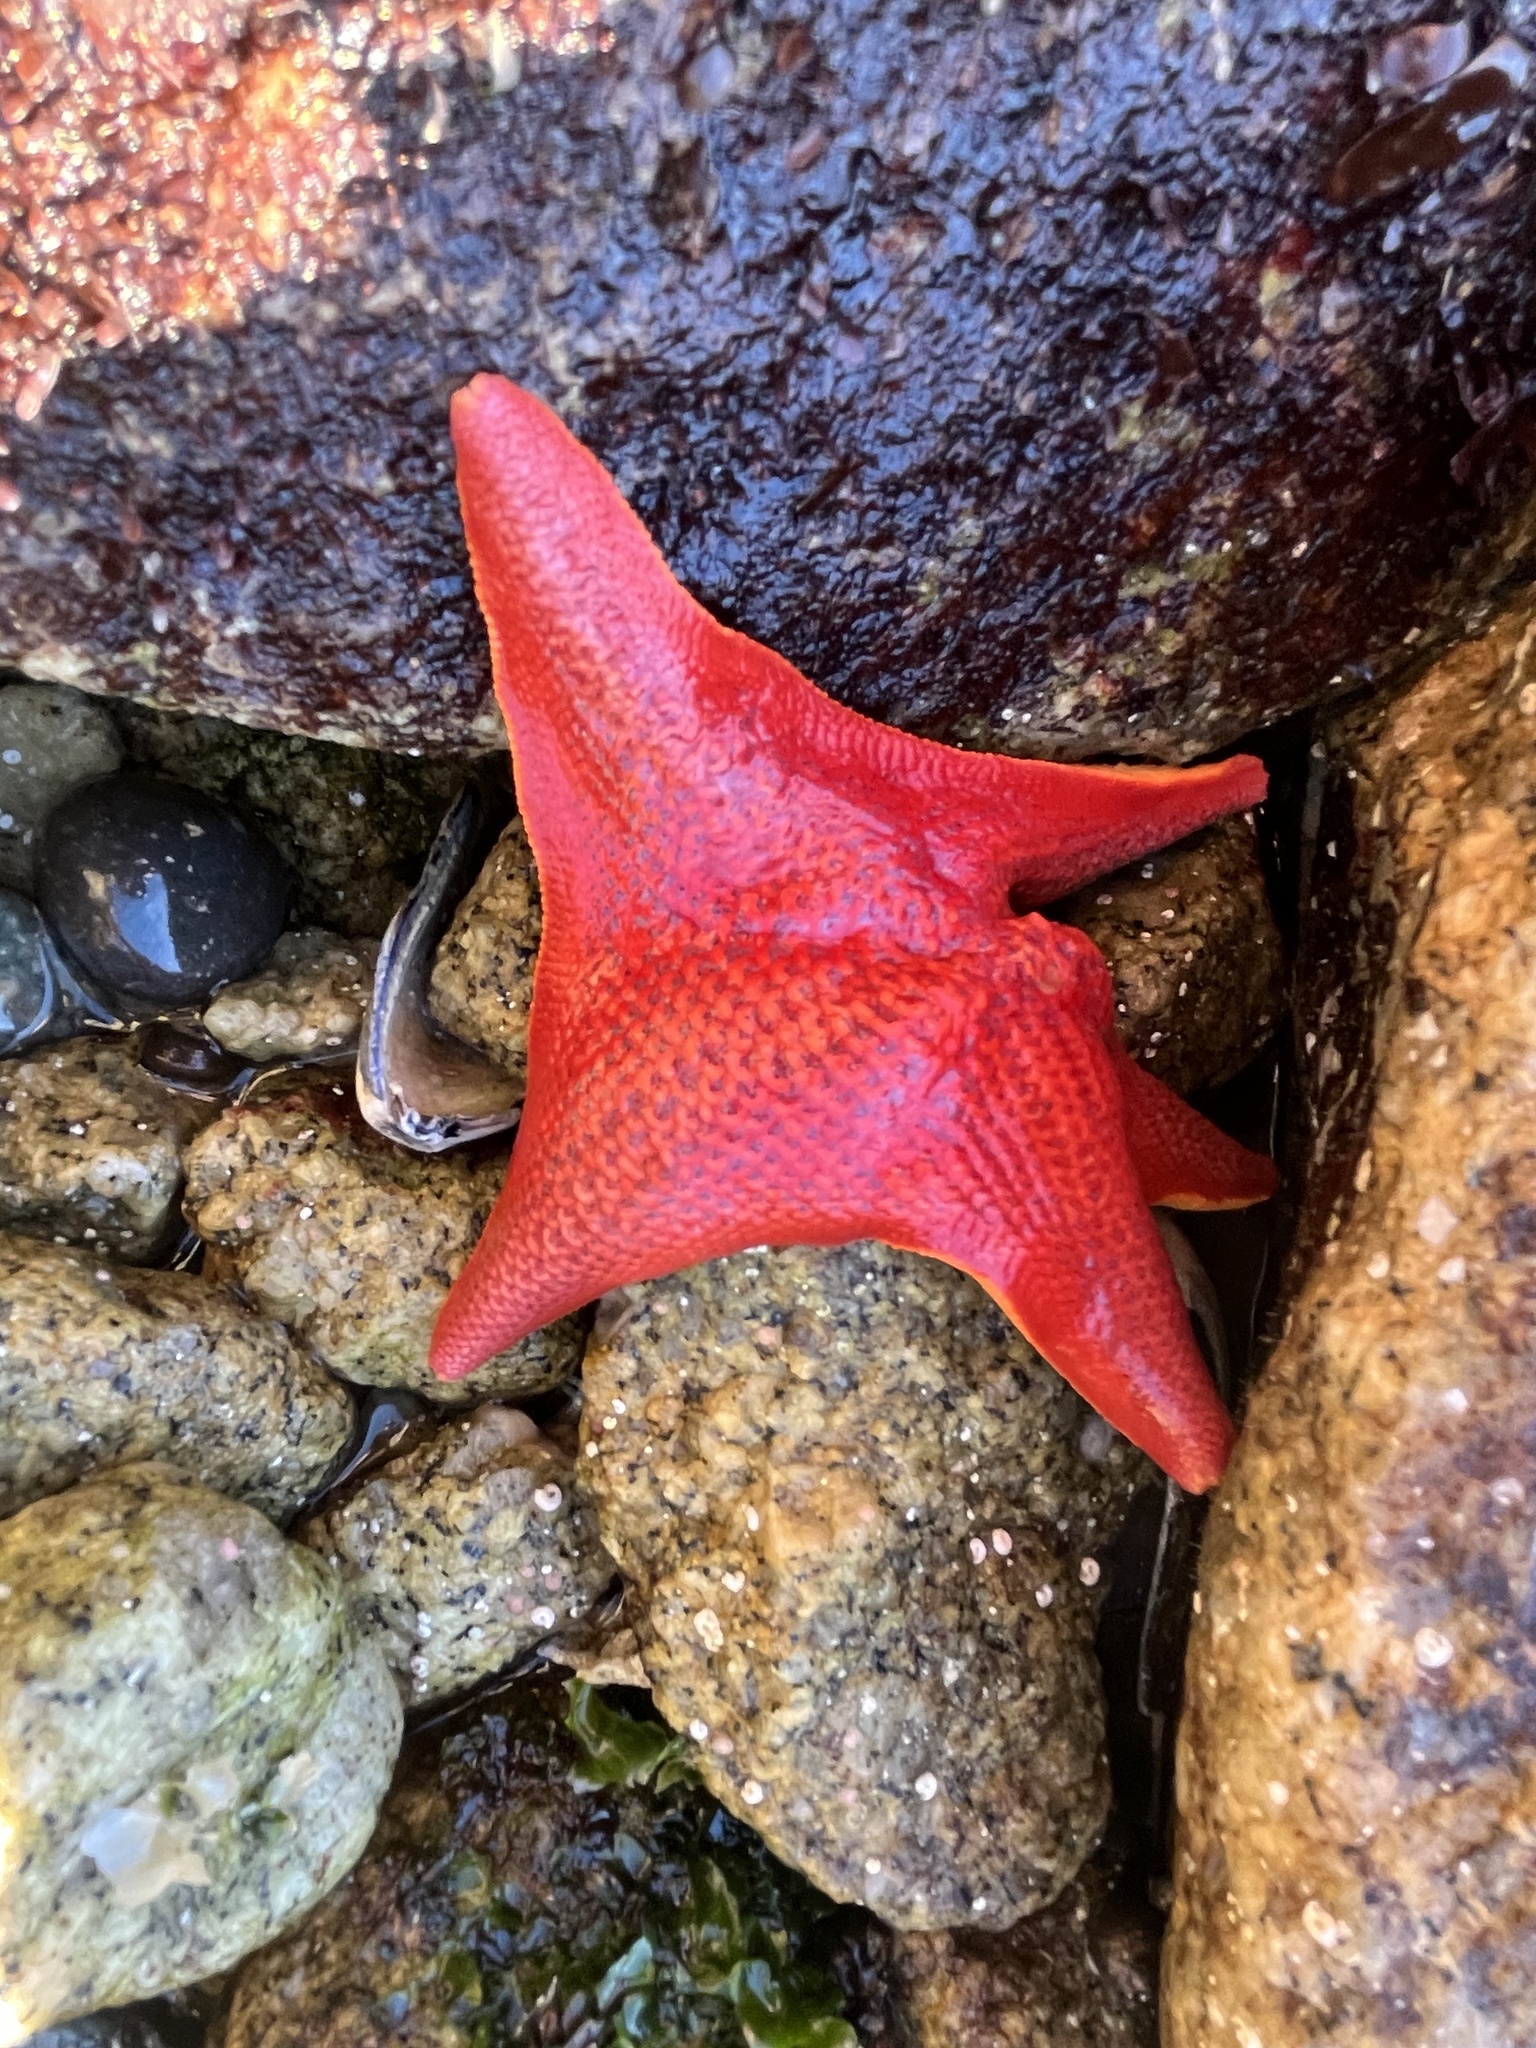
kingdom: Animalia
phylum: Echinodermata
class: Asteroidea
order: Valvatida
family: Asterinidae
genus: Patiria
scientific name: Patiria miniata
